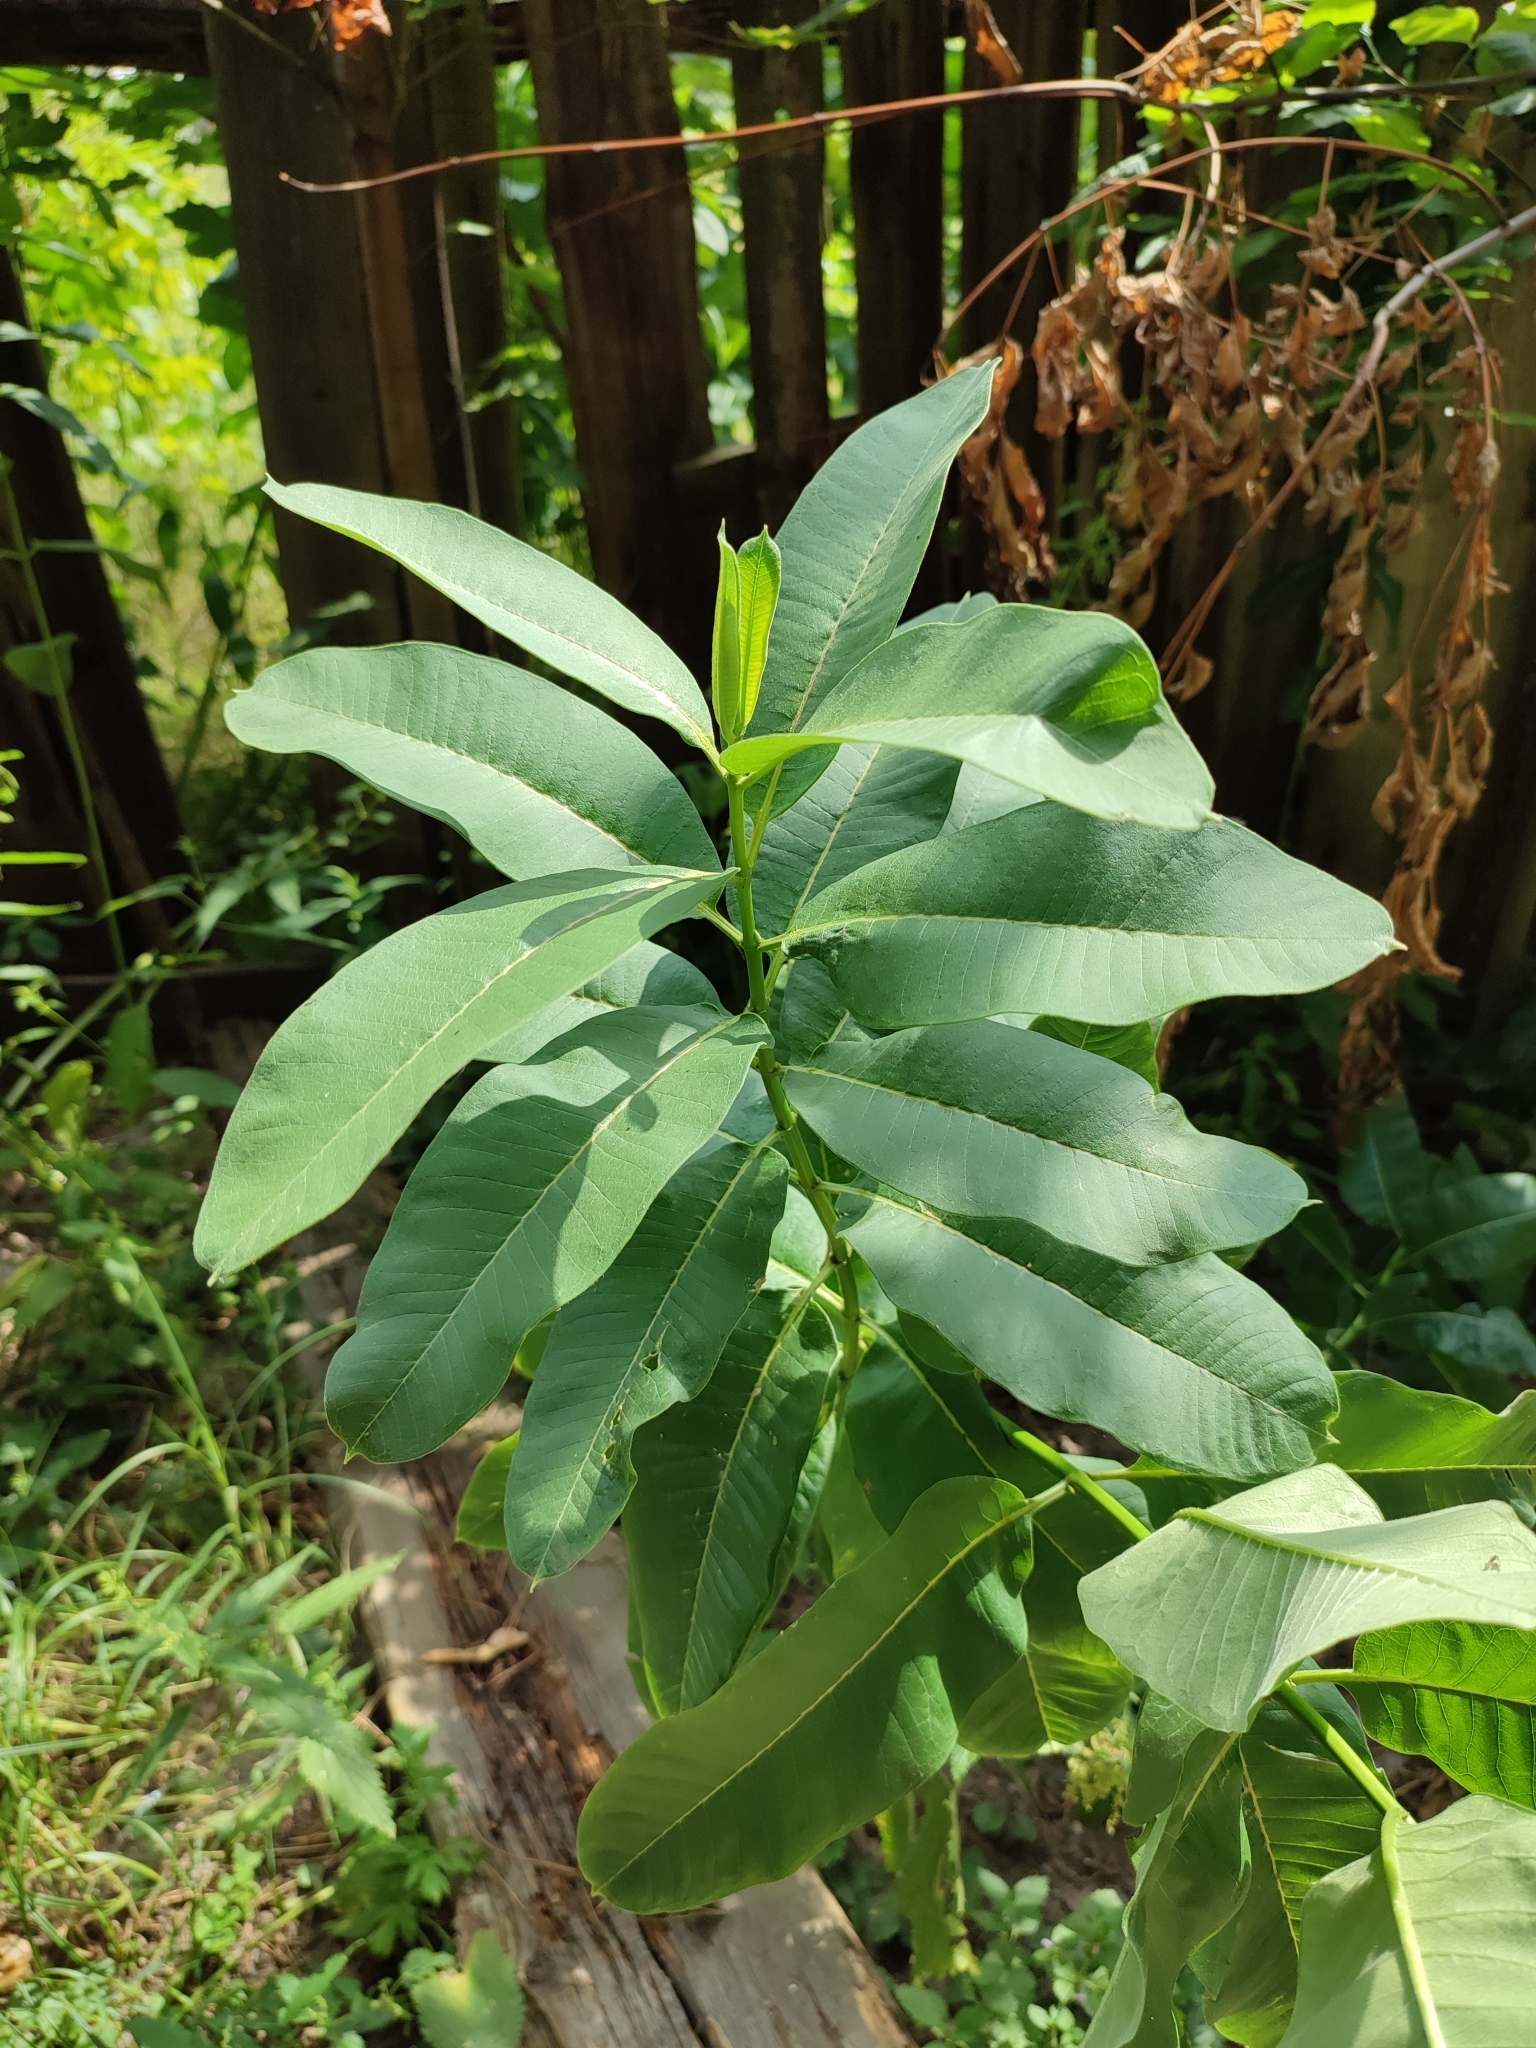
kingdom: Plantae
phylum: Tracheophyta
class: Magnoliopsida
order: Gentianales
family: Apocynaceae
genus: Asclepias
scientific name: Asclepias syriaca
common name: Common milkweed
